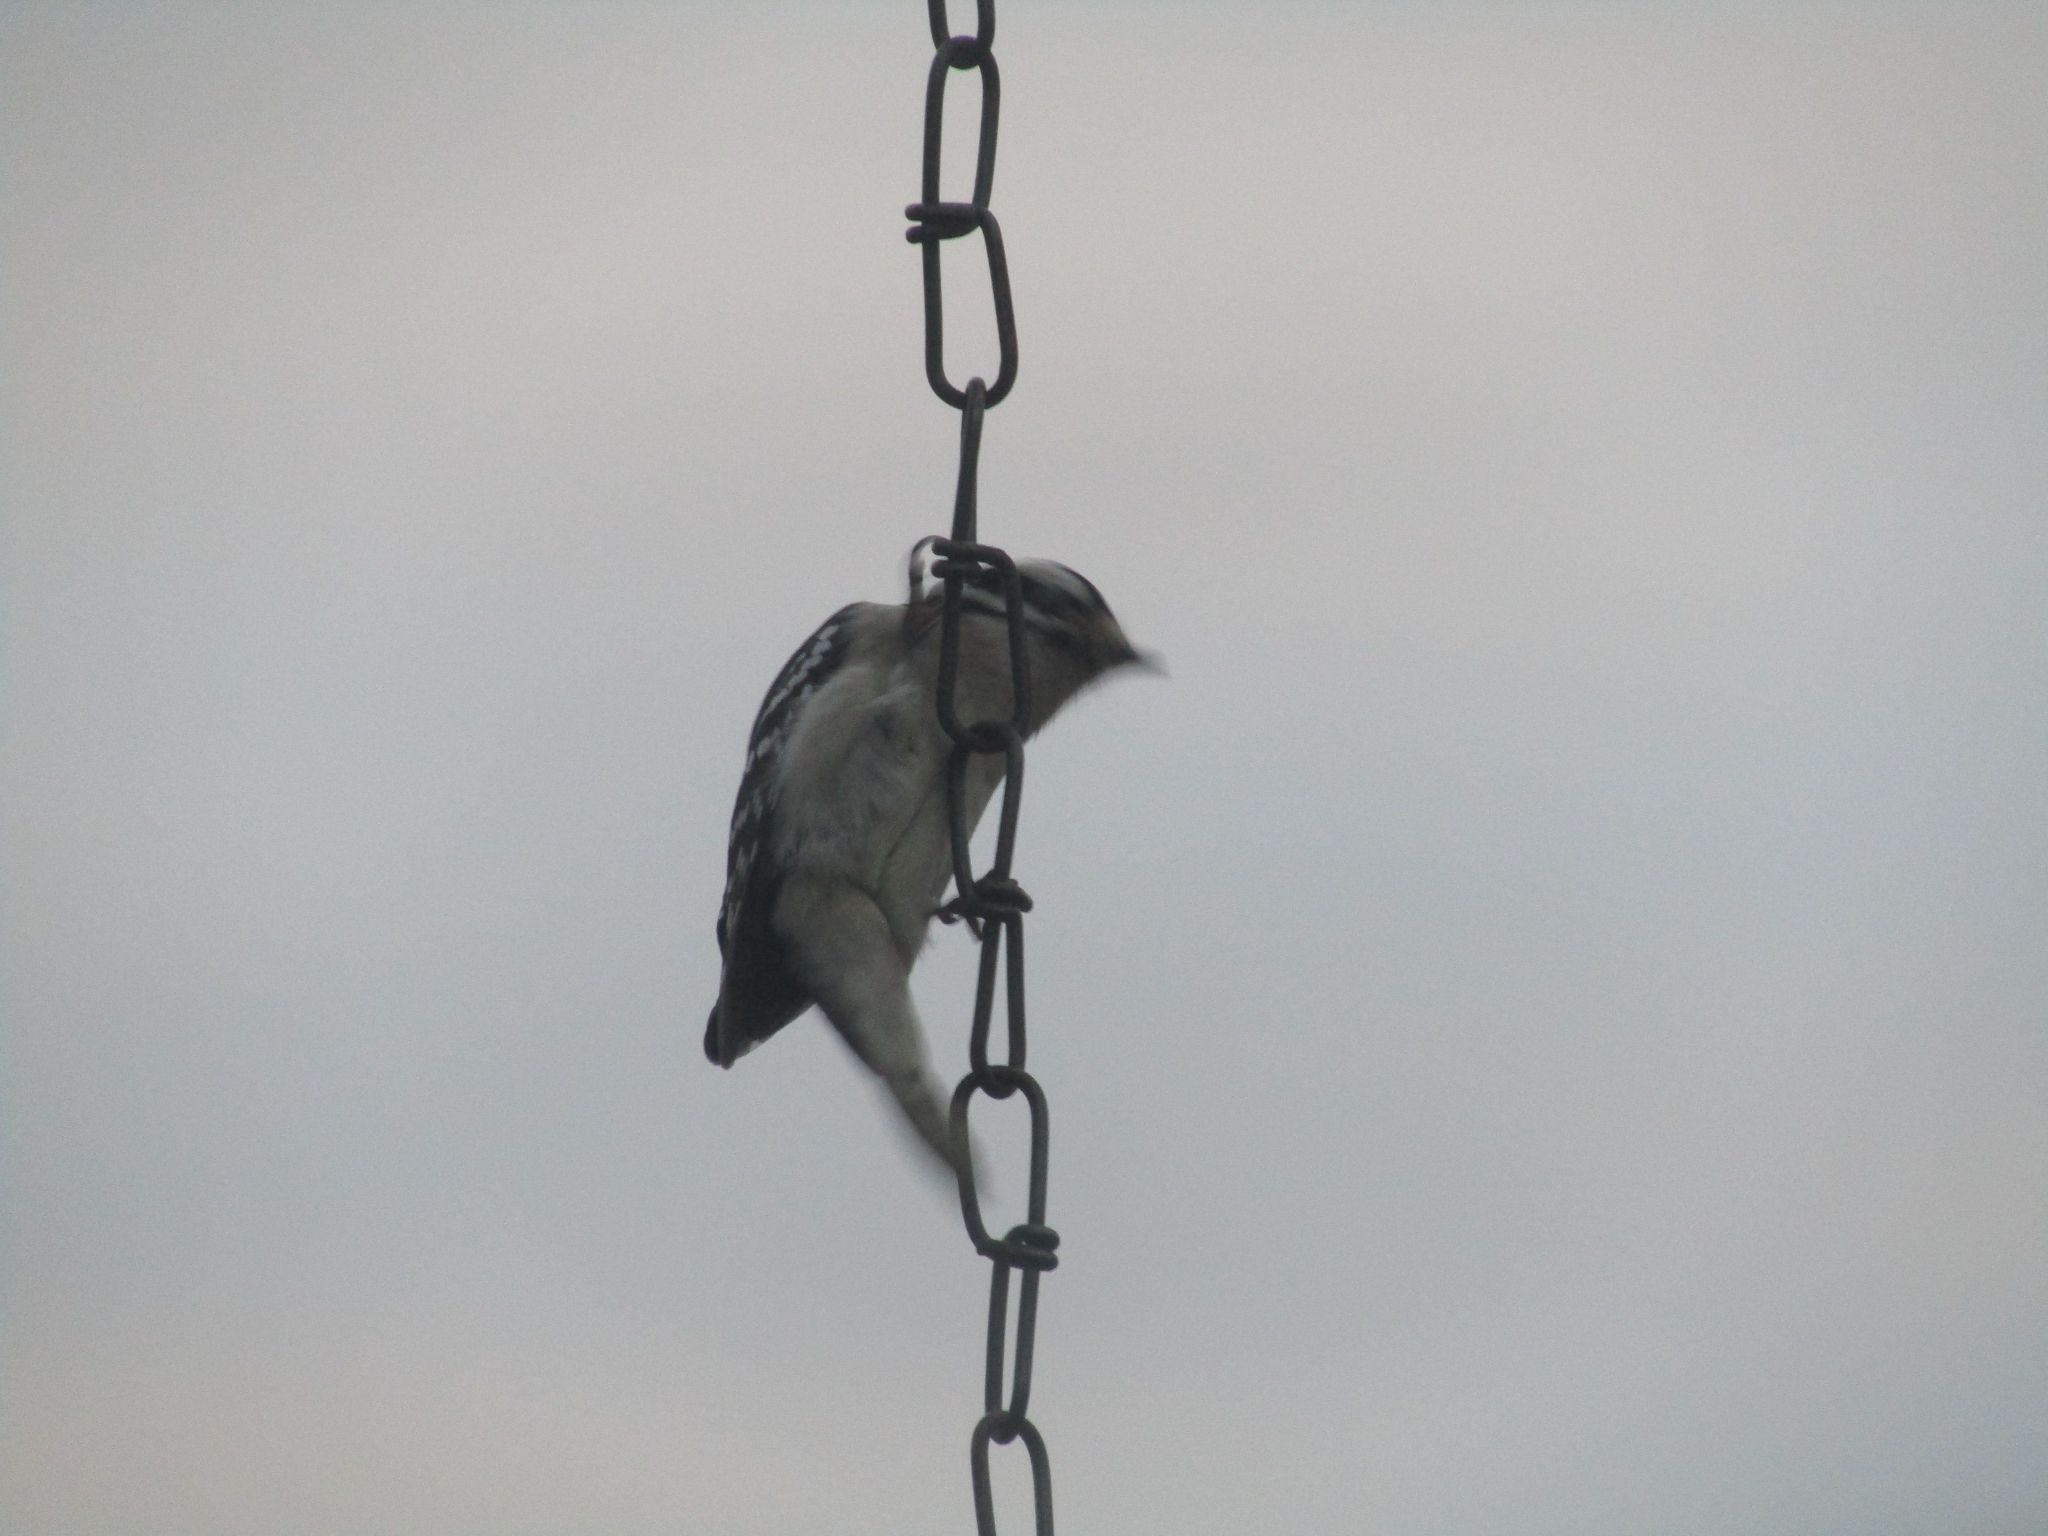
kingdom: Animalia
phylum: Chordata
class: Aves
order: Piciformes
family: Picidae
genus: Dryobates
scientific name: Dryobates pubescens
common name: Downy woodpecker
